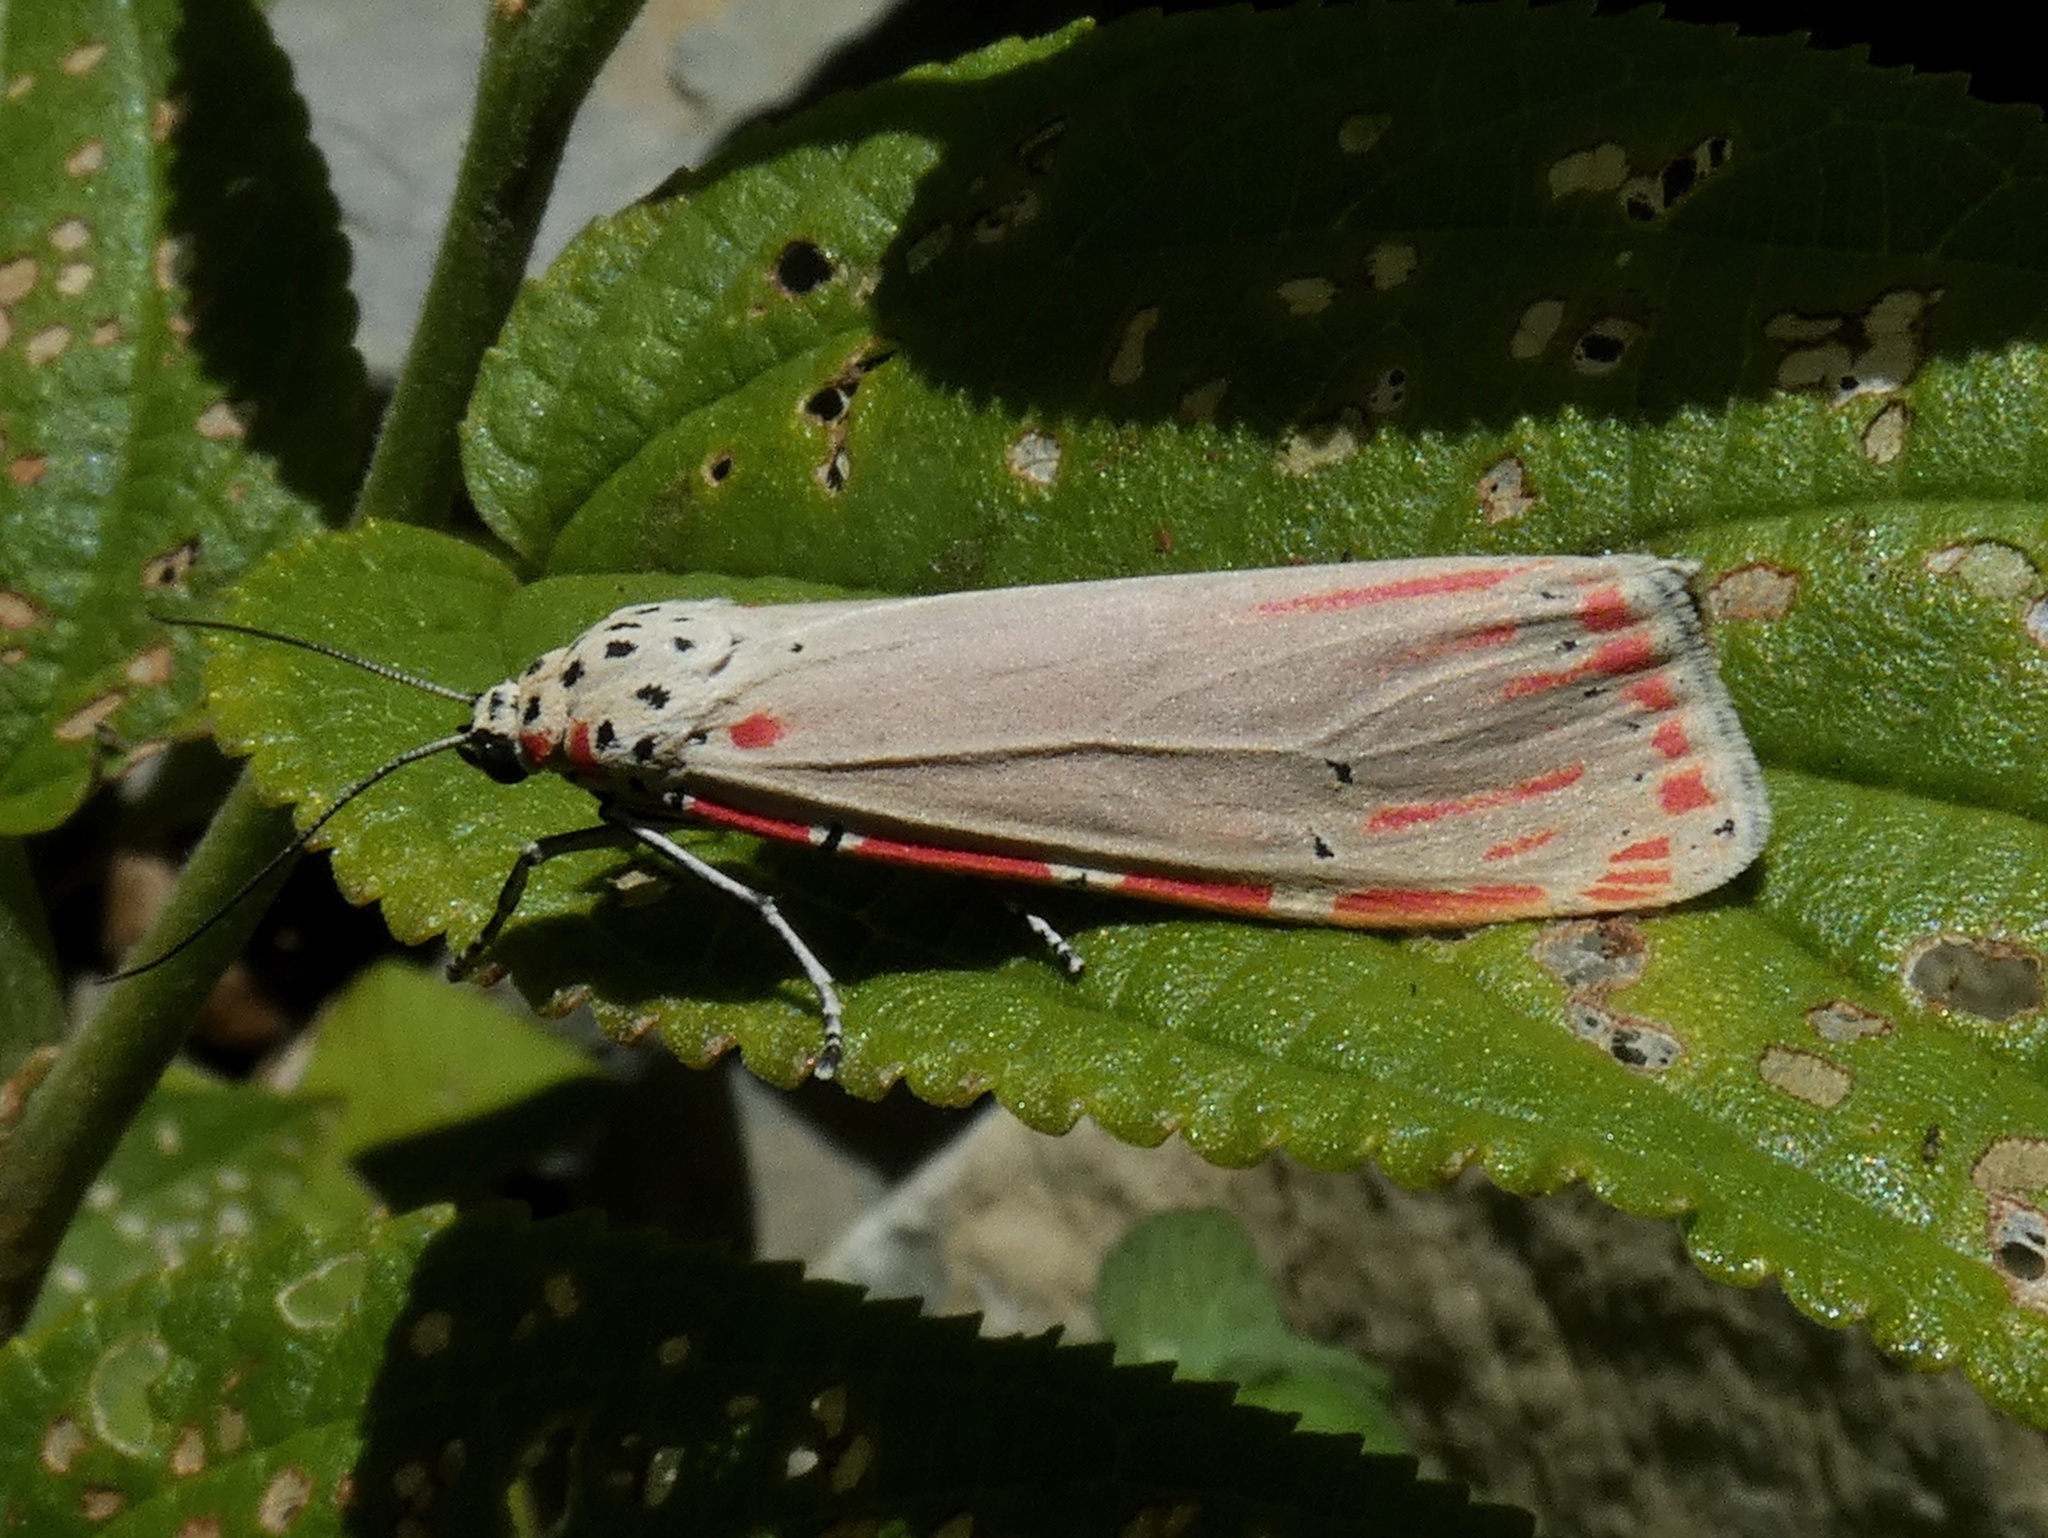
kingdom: Animalia
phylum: Arthropoda
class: Insecta
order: Lepidoptera
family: Erebidae
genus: Utetheisa
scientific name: Utetheisa ornatrix
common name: Beautiful utetheisa
